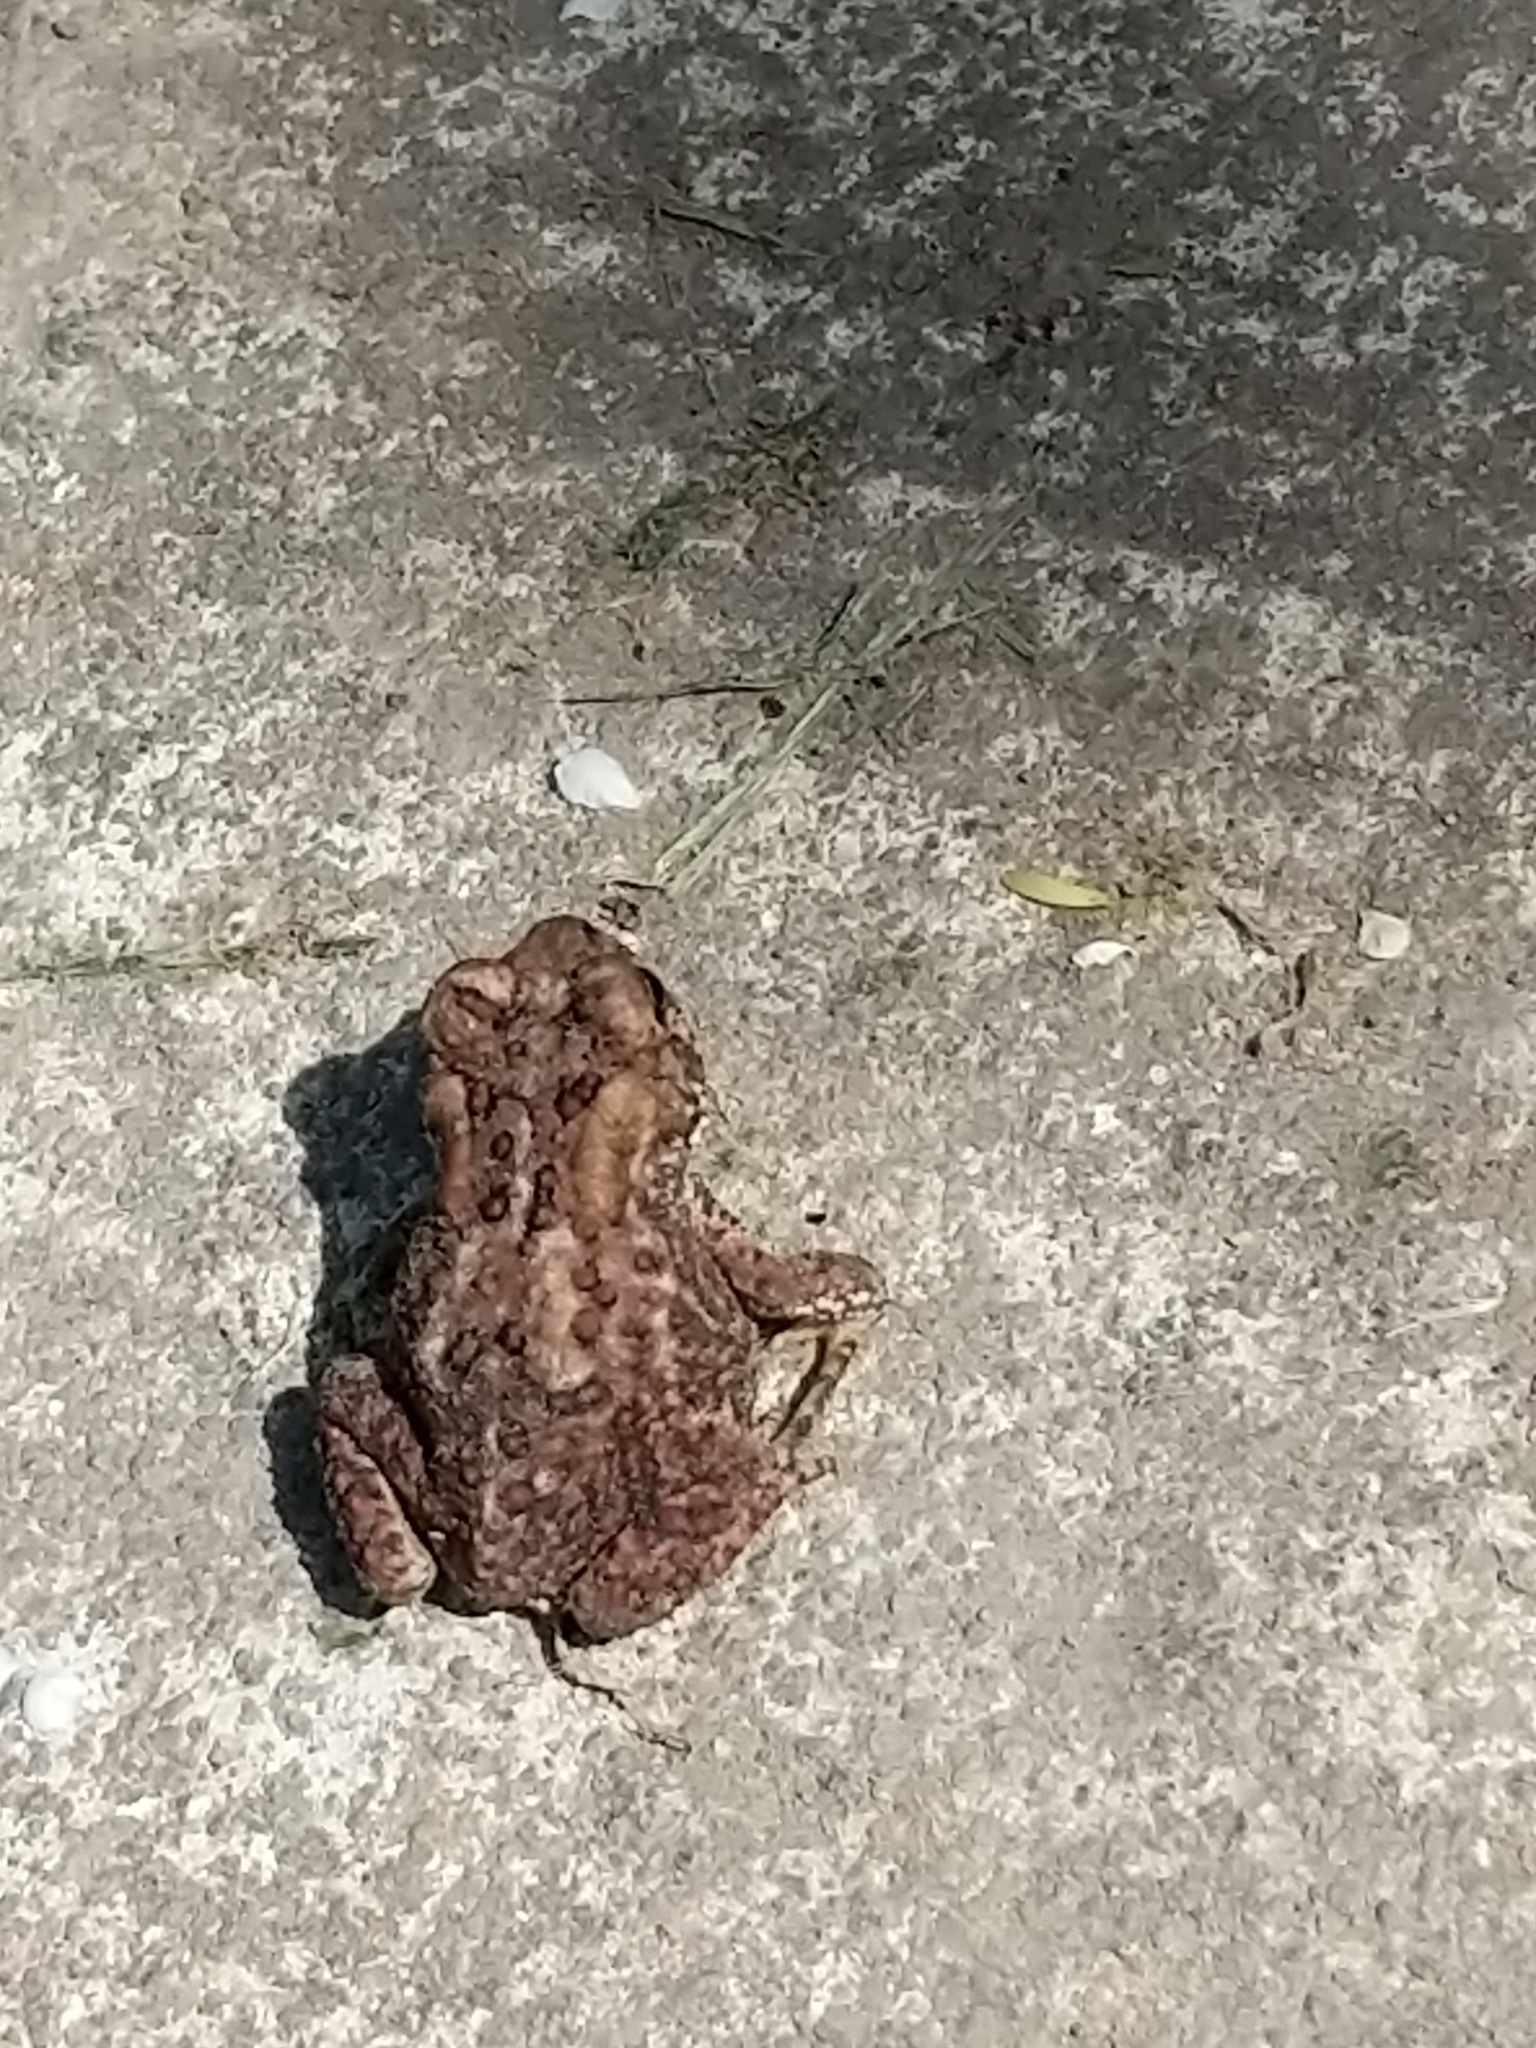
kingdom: Animalia
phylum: Chordata
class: Amphibia
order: Anura
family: Bufonidae
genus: Anaxyrus
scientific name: Anaxyrus americanus
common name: American toad
